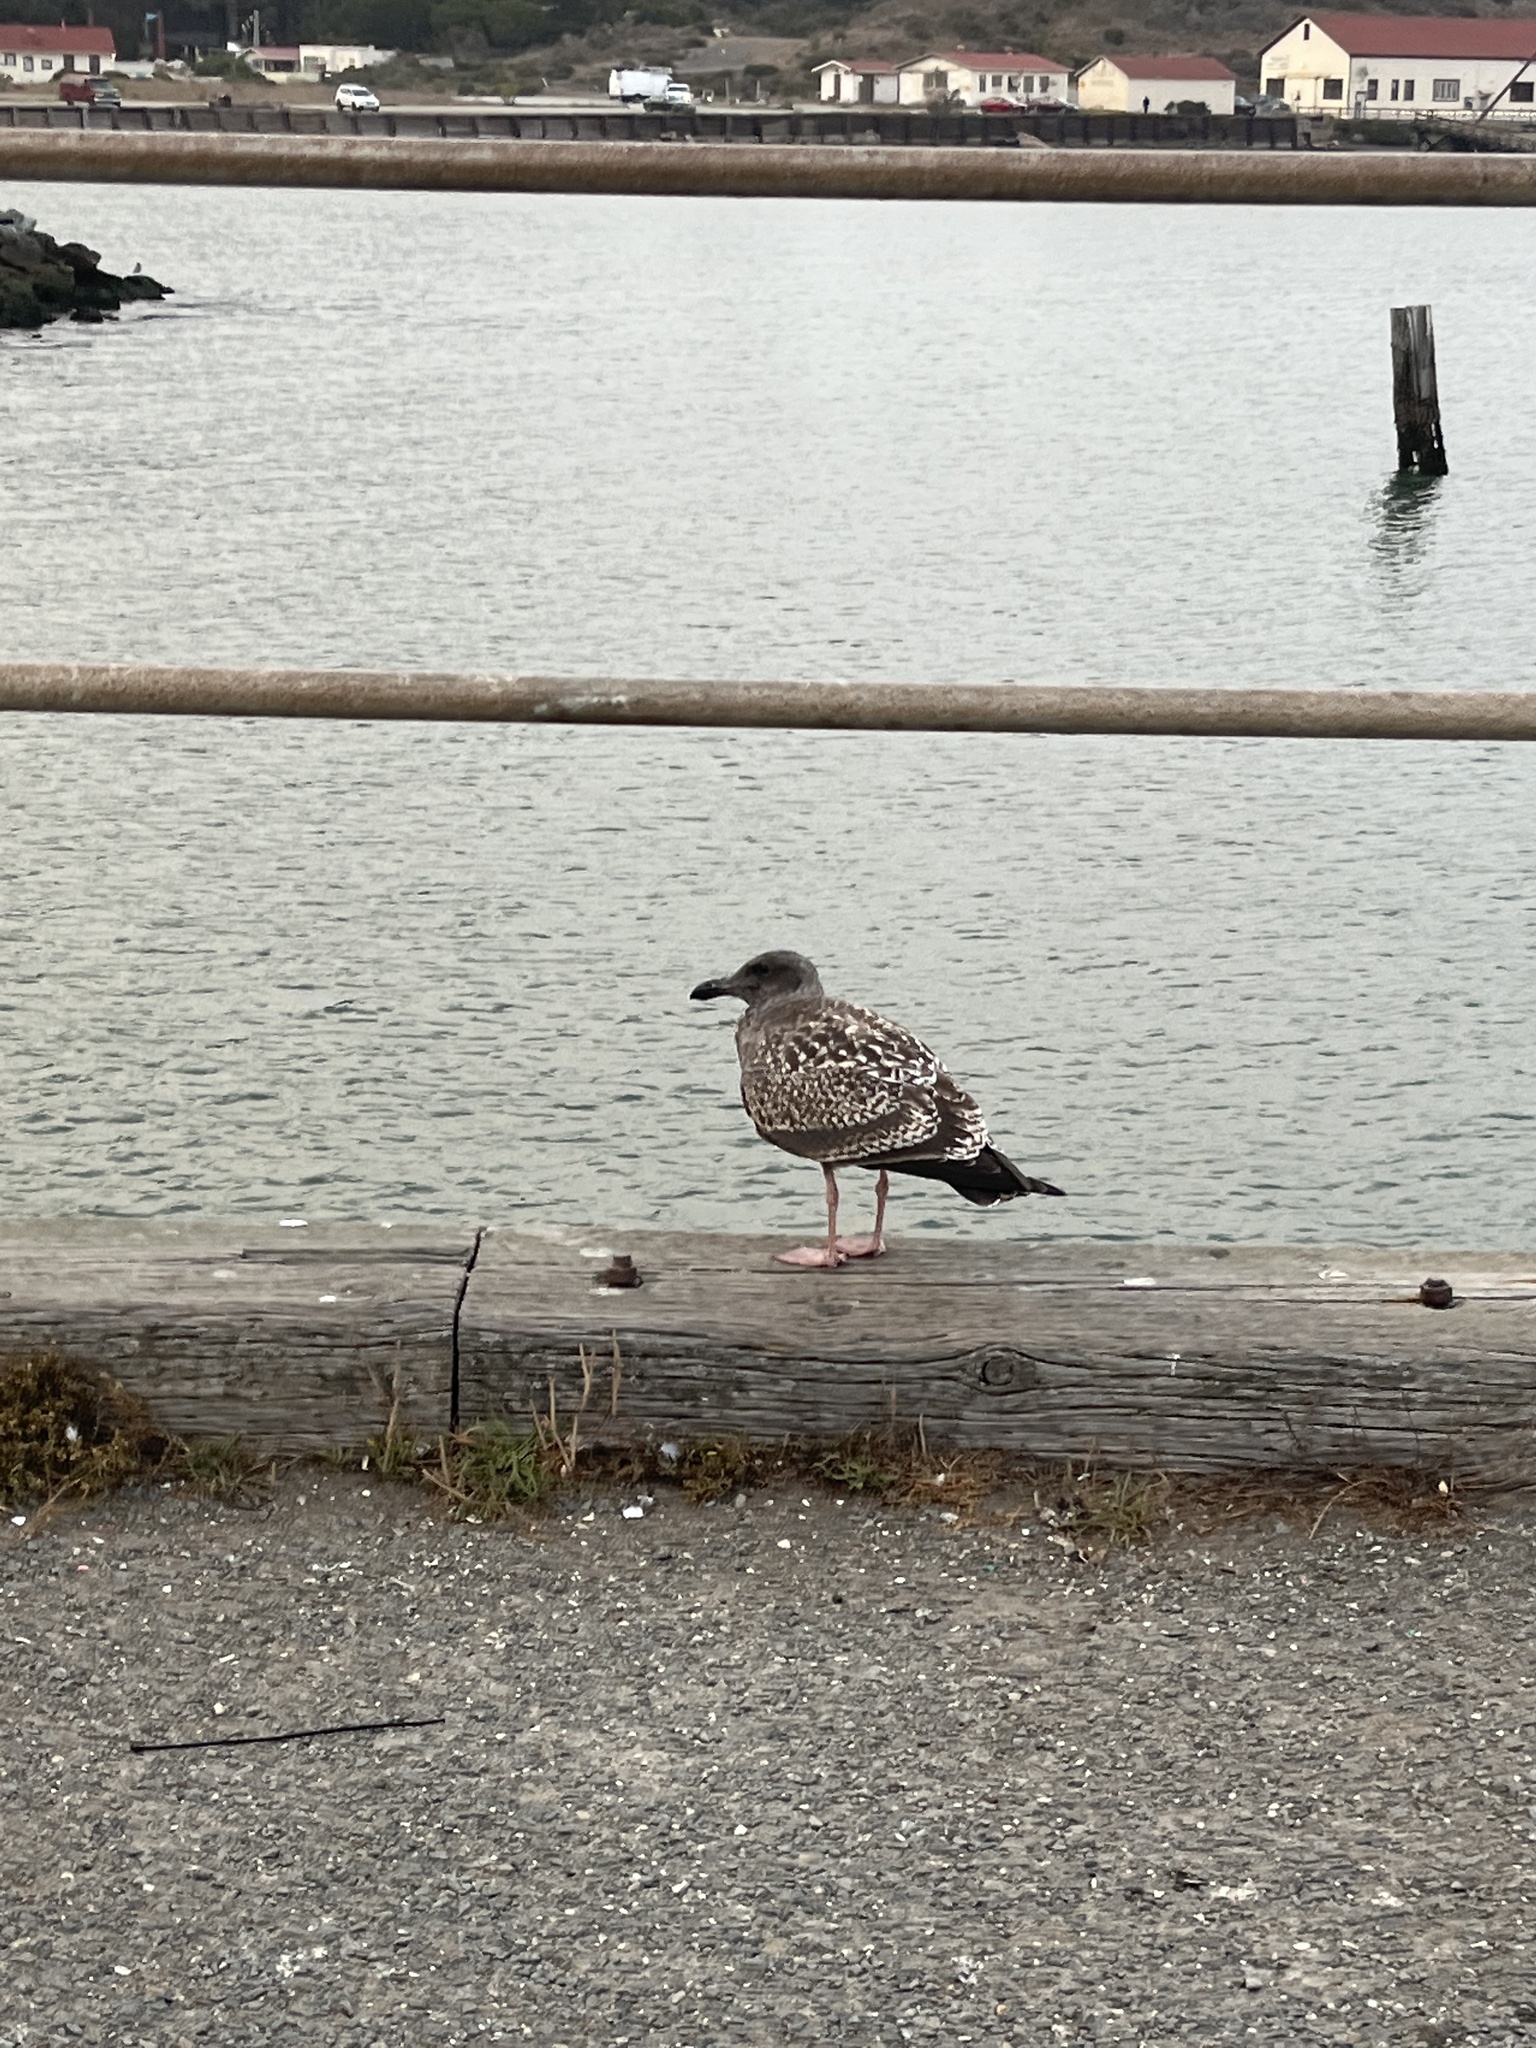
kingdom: Animalia
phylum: Chordata
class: Aves
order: Charadriiformes
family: Laridae
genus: Larus
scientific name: Larus occidentalis
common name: Western gull
